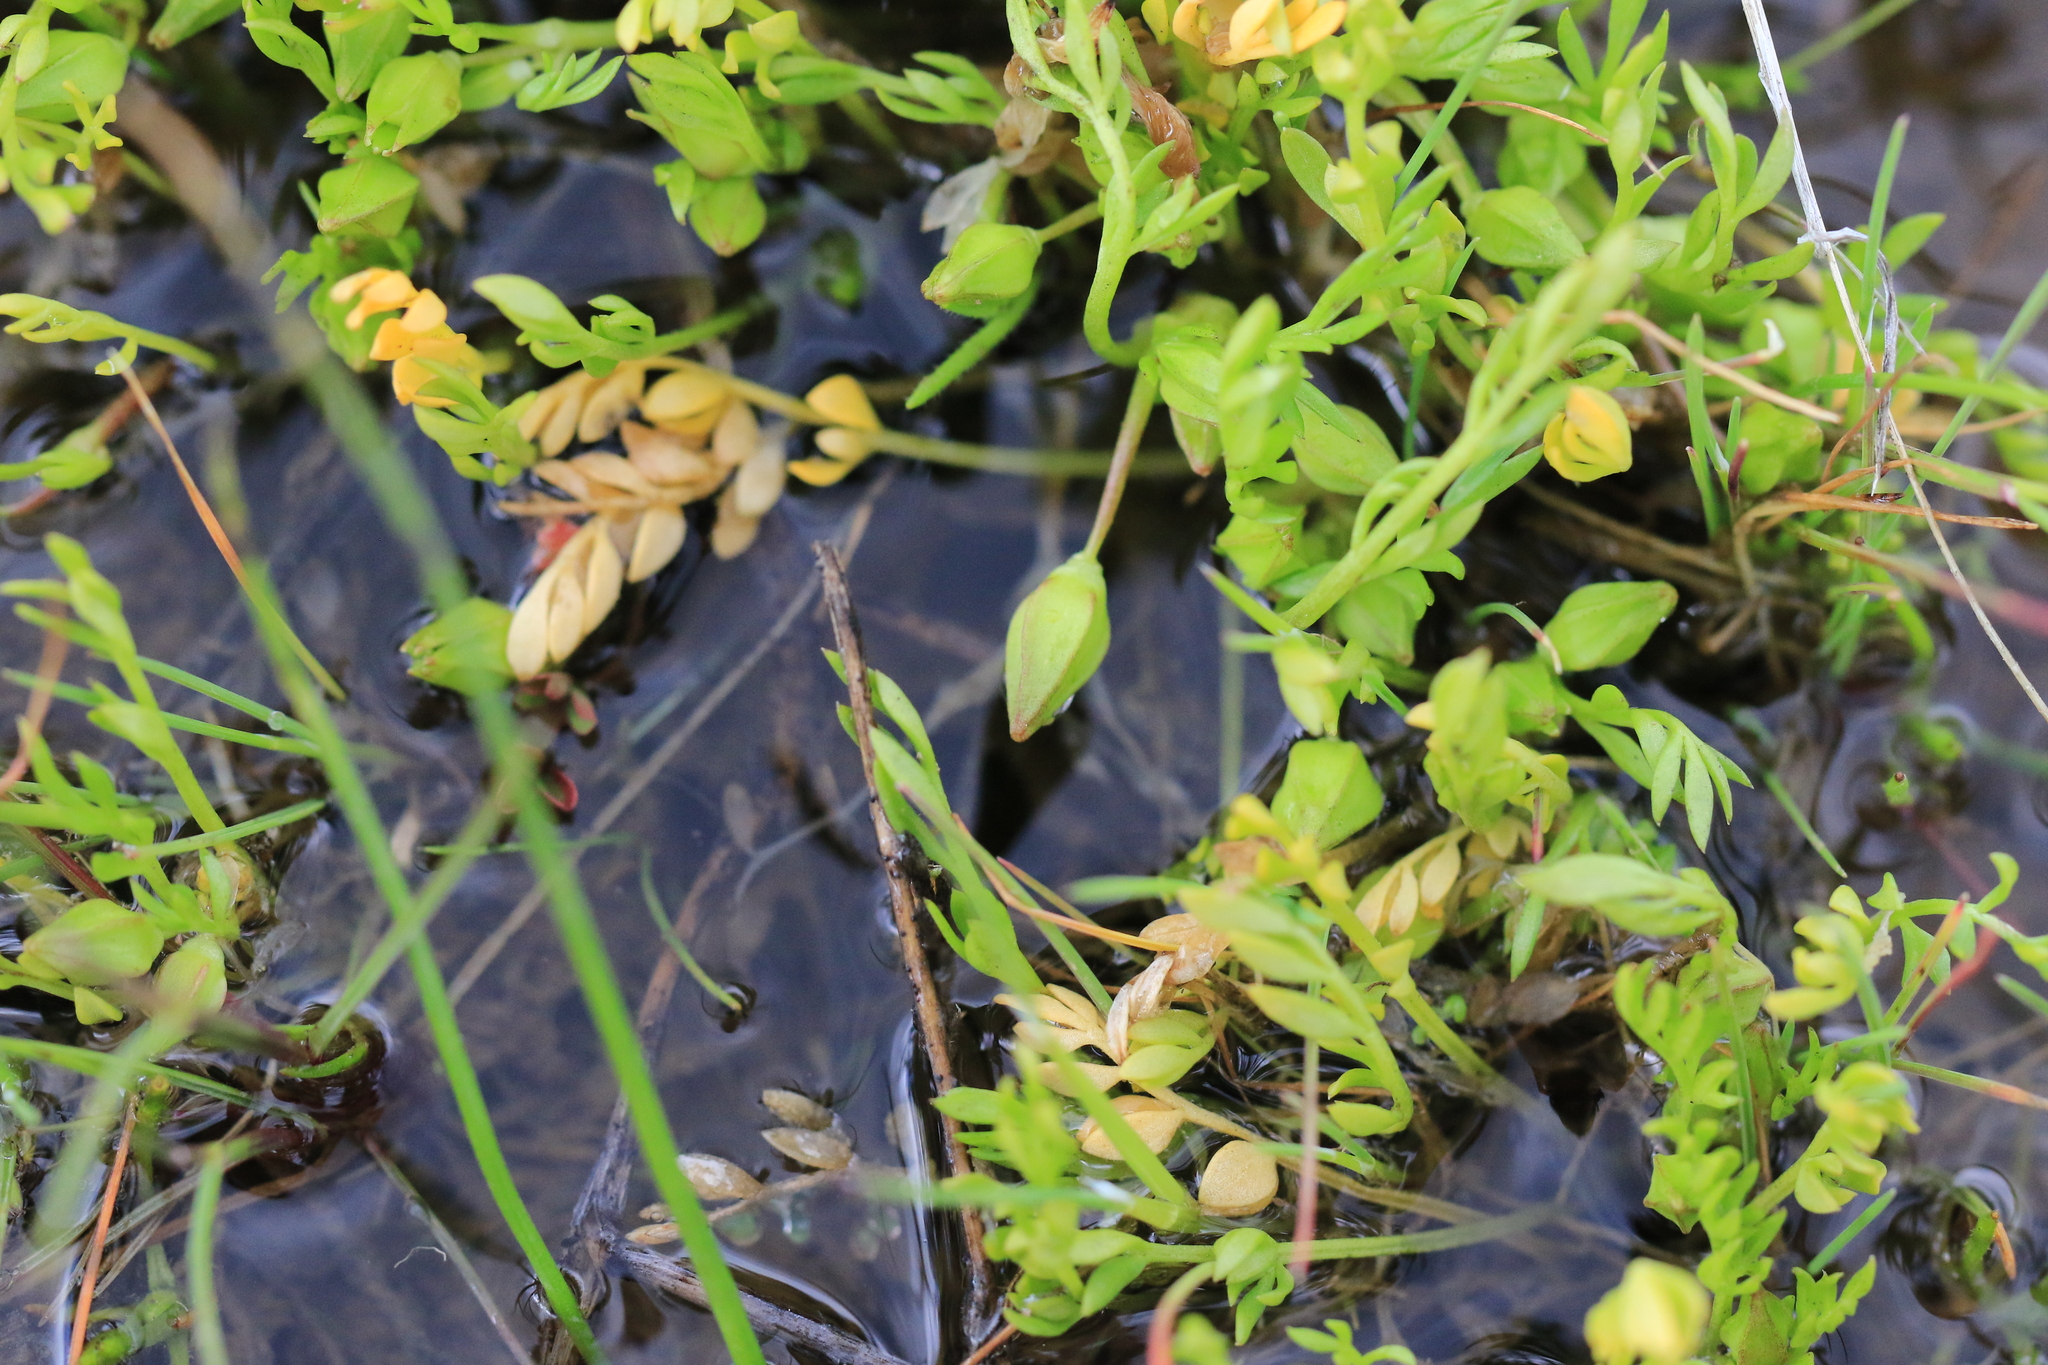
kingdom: Plantae
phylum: Tracheophyta
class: Magnoliopsida
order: Brassicales
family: Limnanthaceae
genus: Limnanthes
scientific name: Limnanthes floccosa
